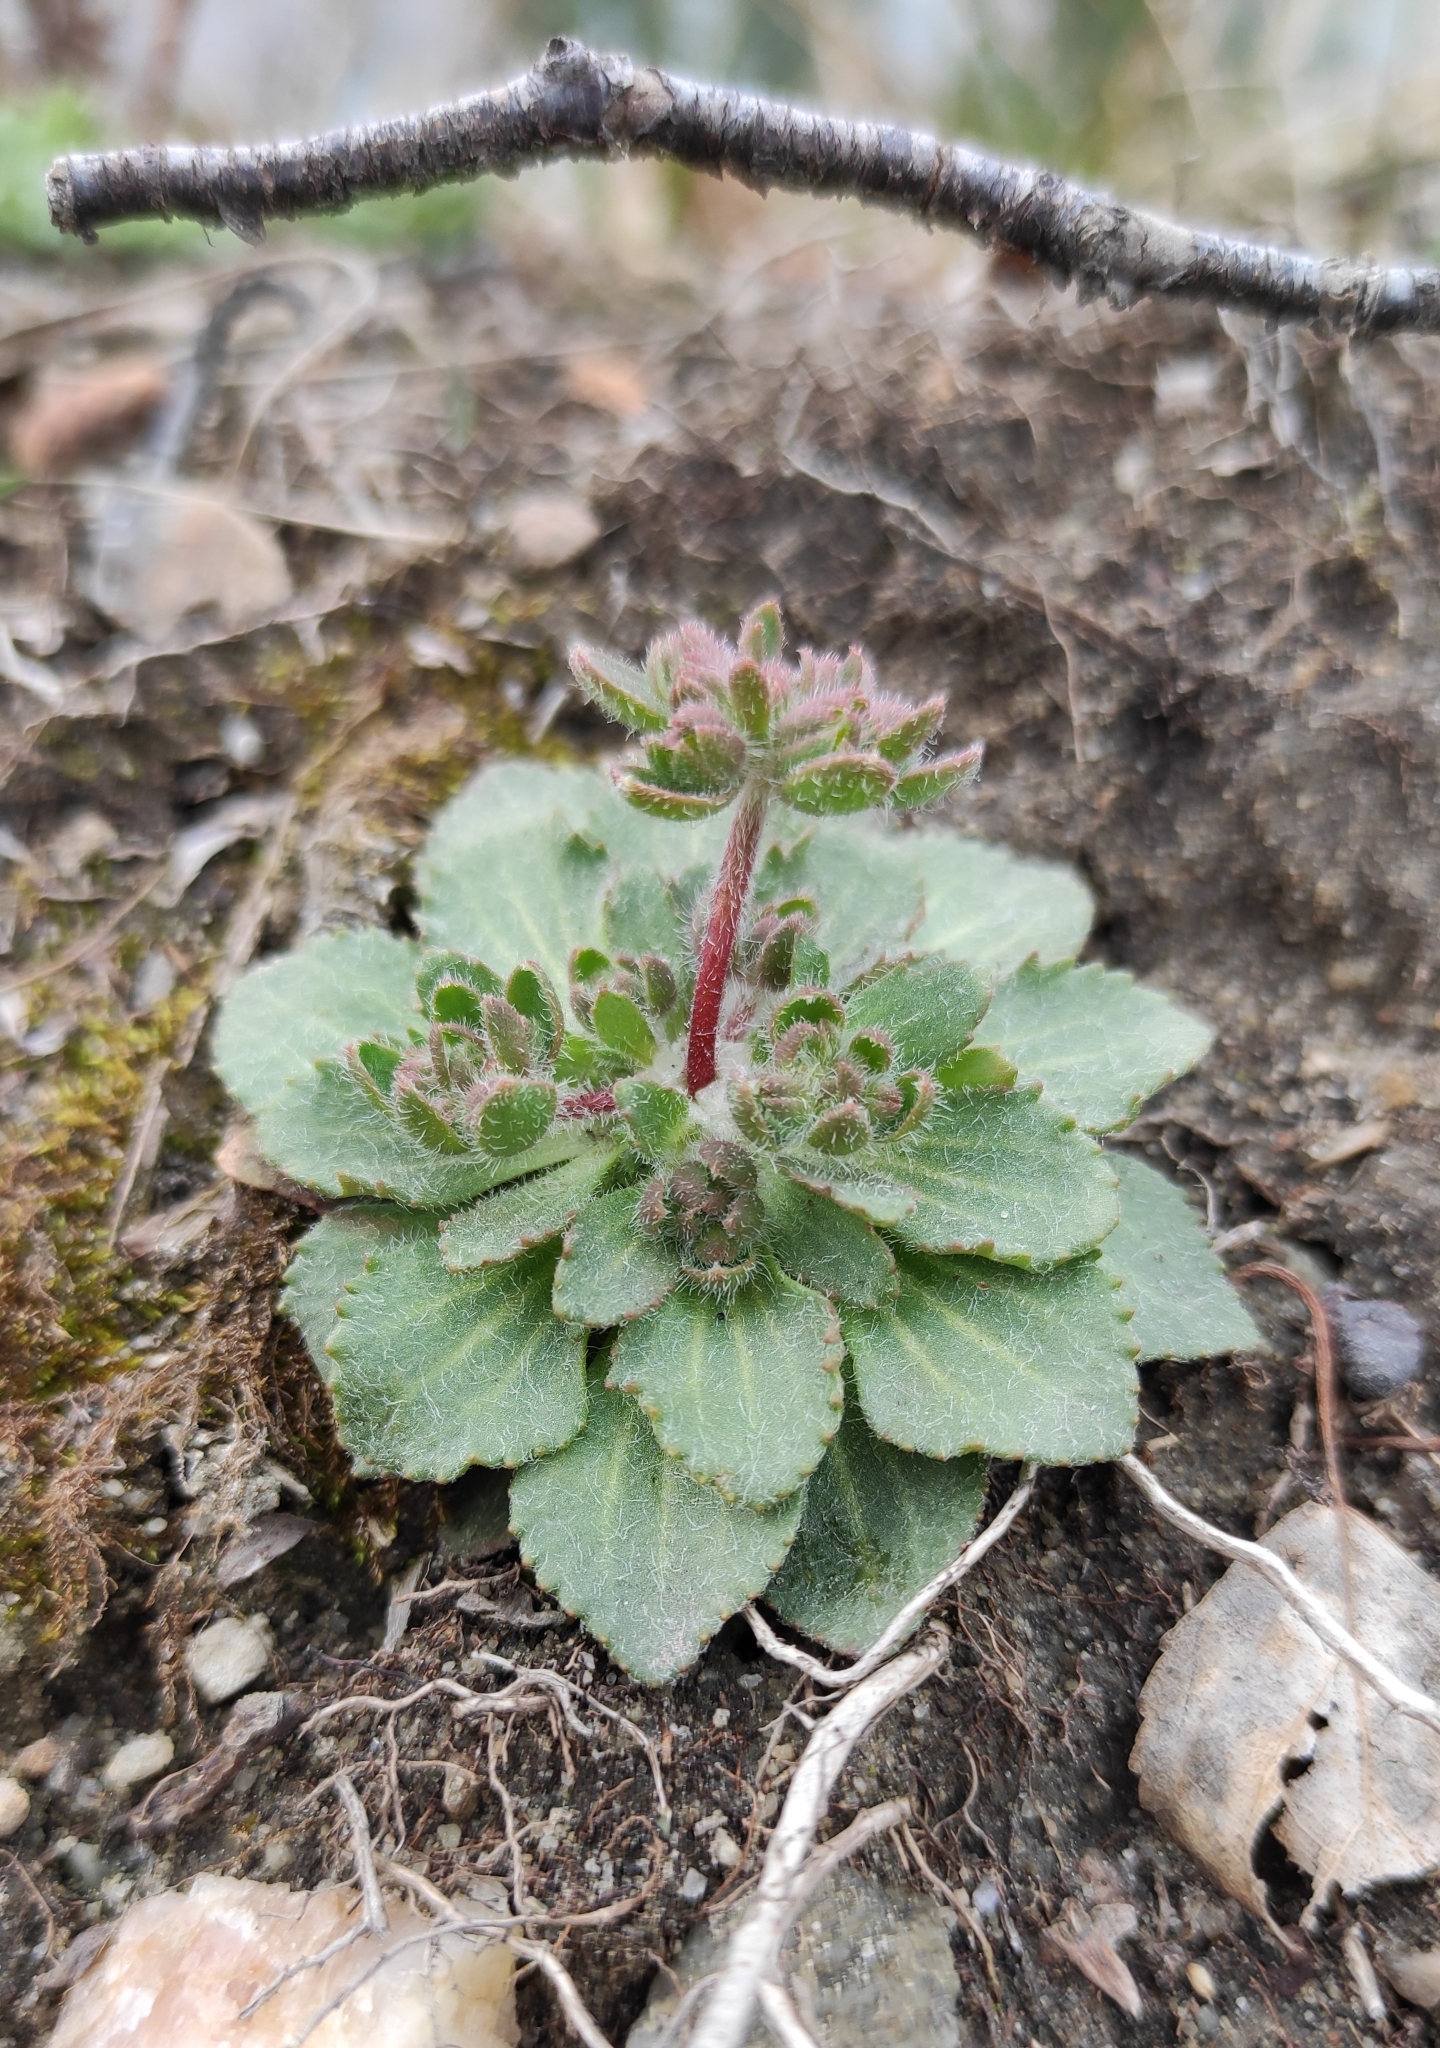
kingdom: Plantae
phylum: Tracheophyta
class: Magnoliopsida
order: Ericales
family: Primulaceae
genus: Androsace
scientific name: Androsace maxima
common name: Annual androsace
